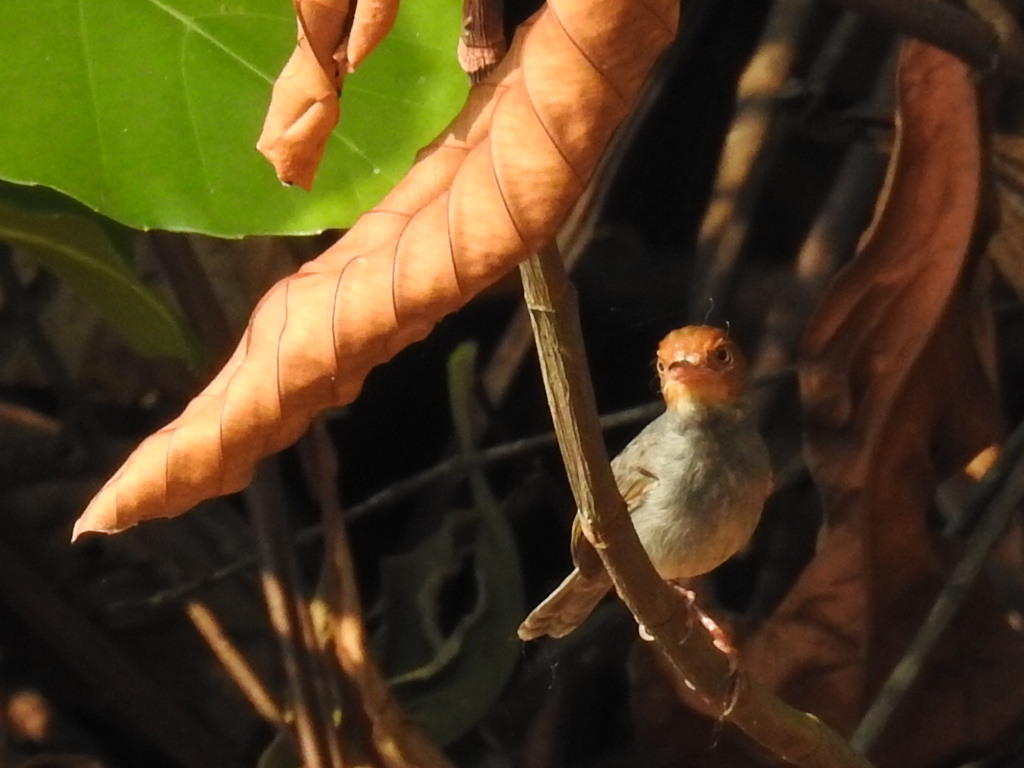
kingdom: Animalia
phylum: Chordata
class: Aves
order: Passeriformes
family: Cisticolidae
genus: Orthotomus
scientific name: Orthotomus ruficeps
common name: Ashy tailorbird
